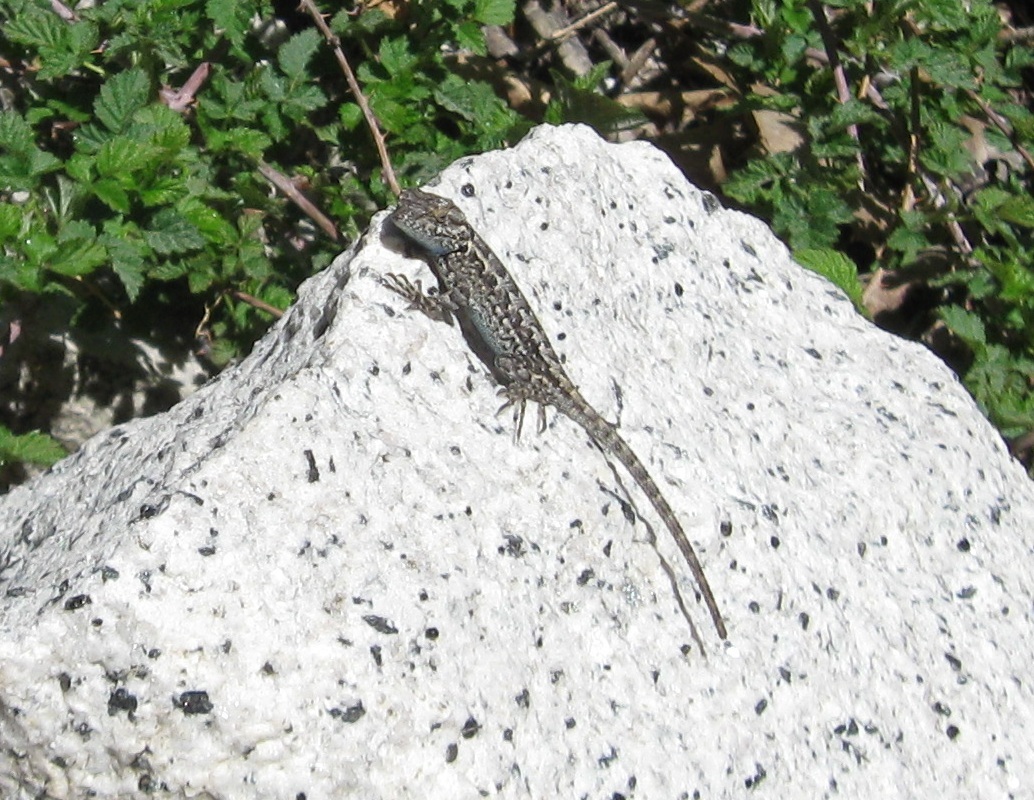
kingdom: Animalia
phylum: Chordata
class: Squamata
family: Phrynosomatidae
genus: Sceloporus
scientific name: Sceloporus graciosus
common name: Sagebrush lizard
